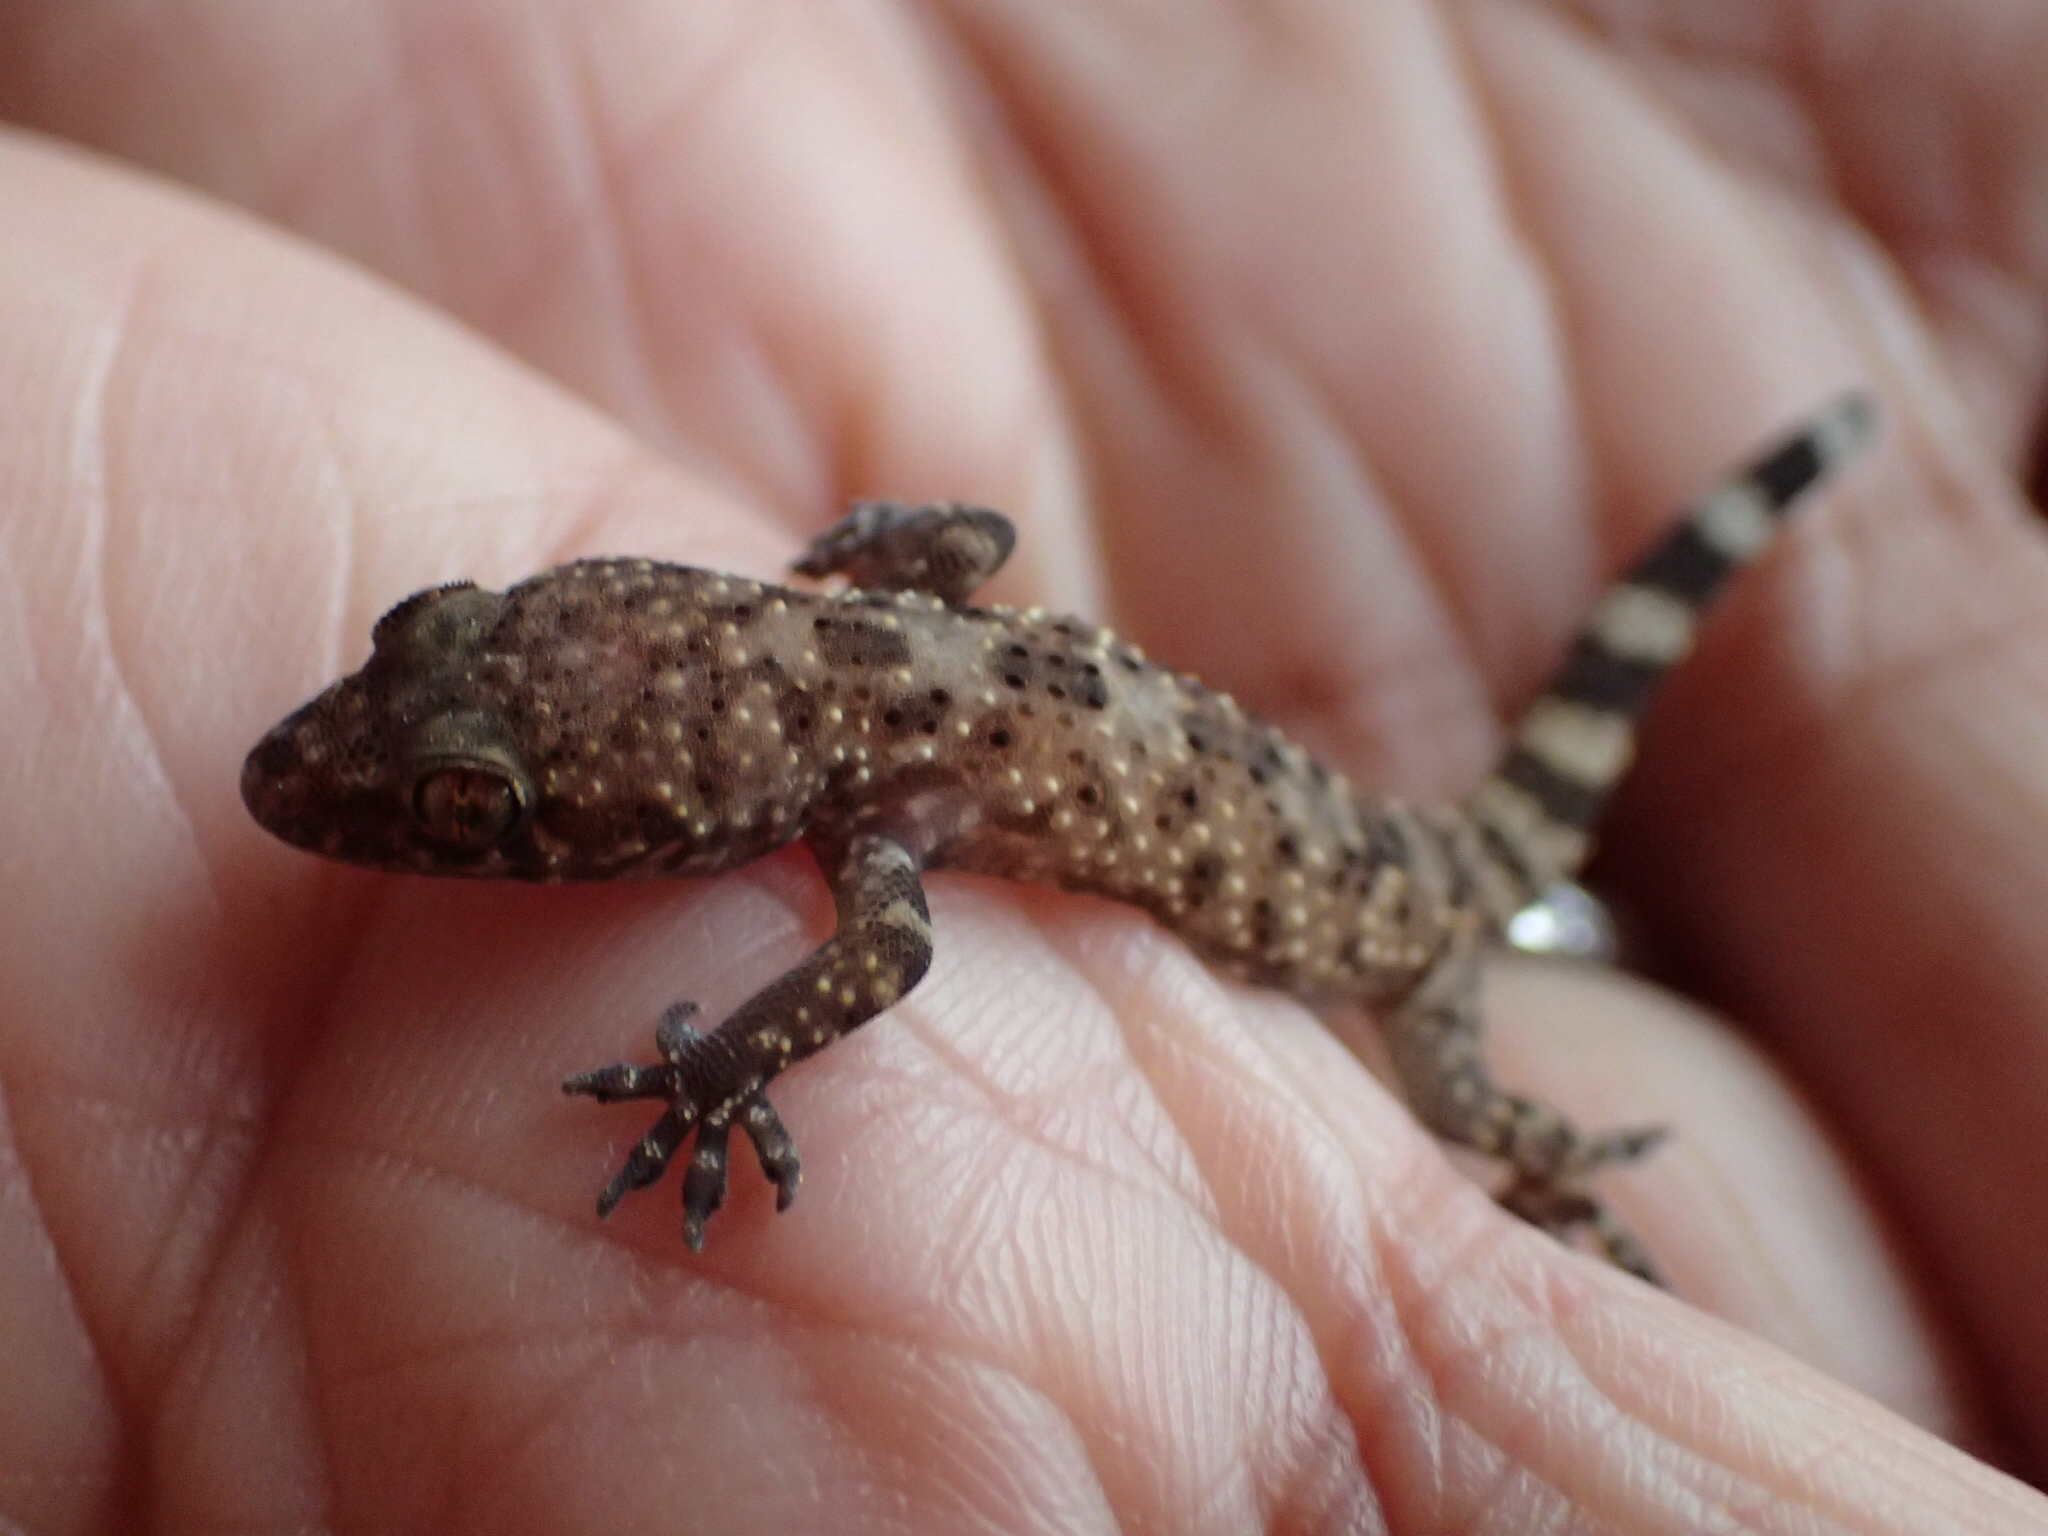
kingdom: Animalia
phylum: Chordata
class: Squamata
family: Gekkonidae
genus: Hemidactylus
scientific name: Hemidactylus turcicus
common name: Turkish gecko
